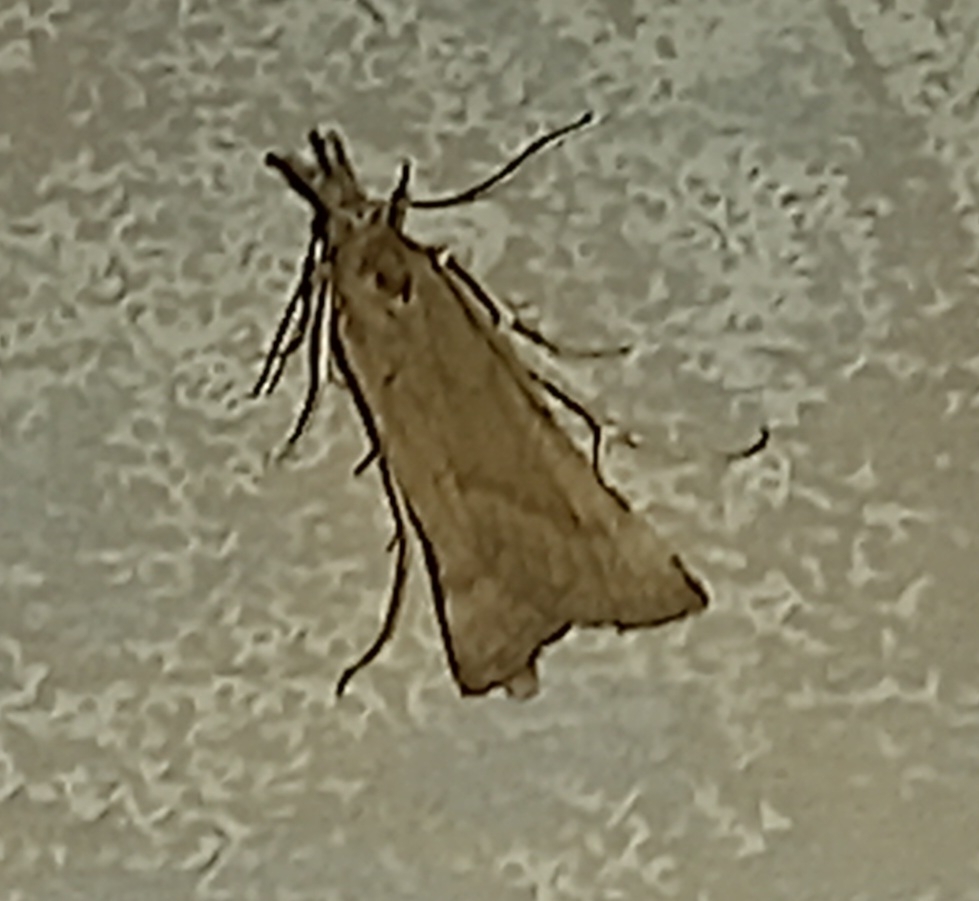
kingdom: Animalia
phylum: Arthropoda
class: Insecta
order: Lepidoptera
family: Pyralidae
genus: Synaphe
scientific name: Synaphe punctalis
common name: Long-legged tabby
